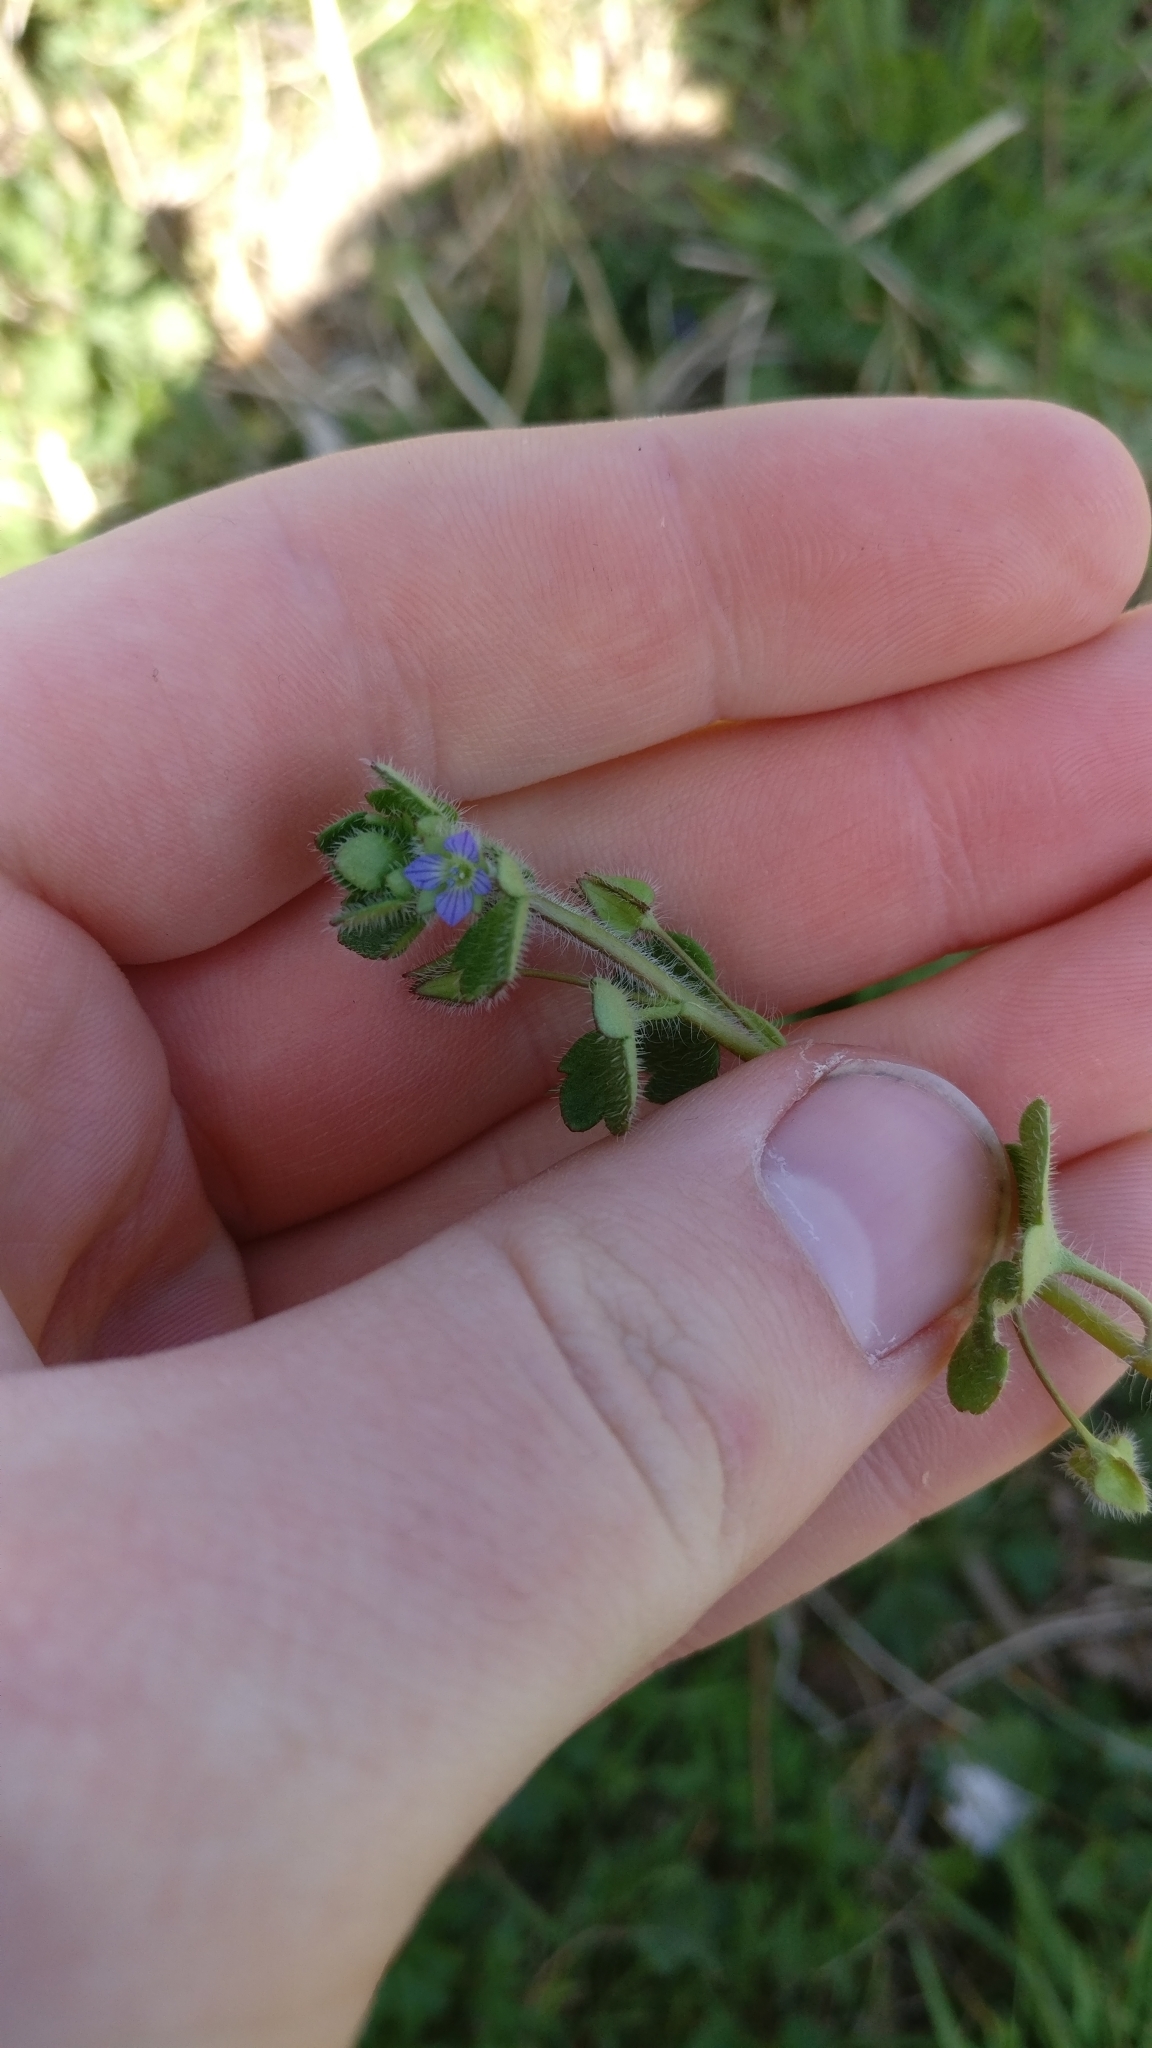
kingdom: Plantae
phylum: Tracheophyta
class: Magnoliopsida
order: Lamiales
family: Plantaginaceae
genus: Veronica
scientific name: Veronica hederifolia
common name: Ivy-leaved speedwell
